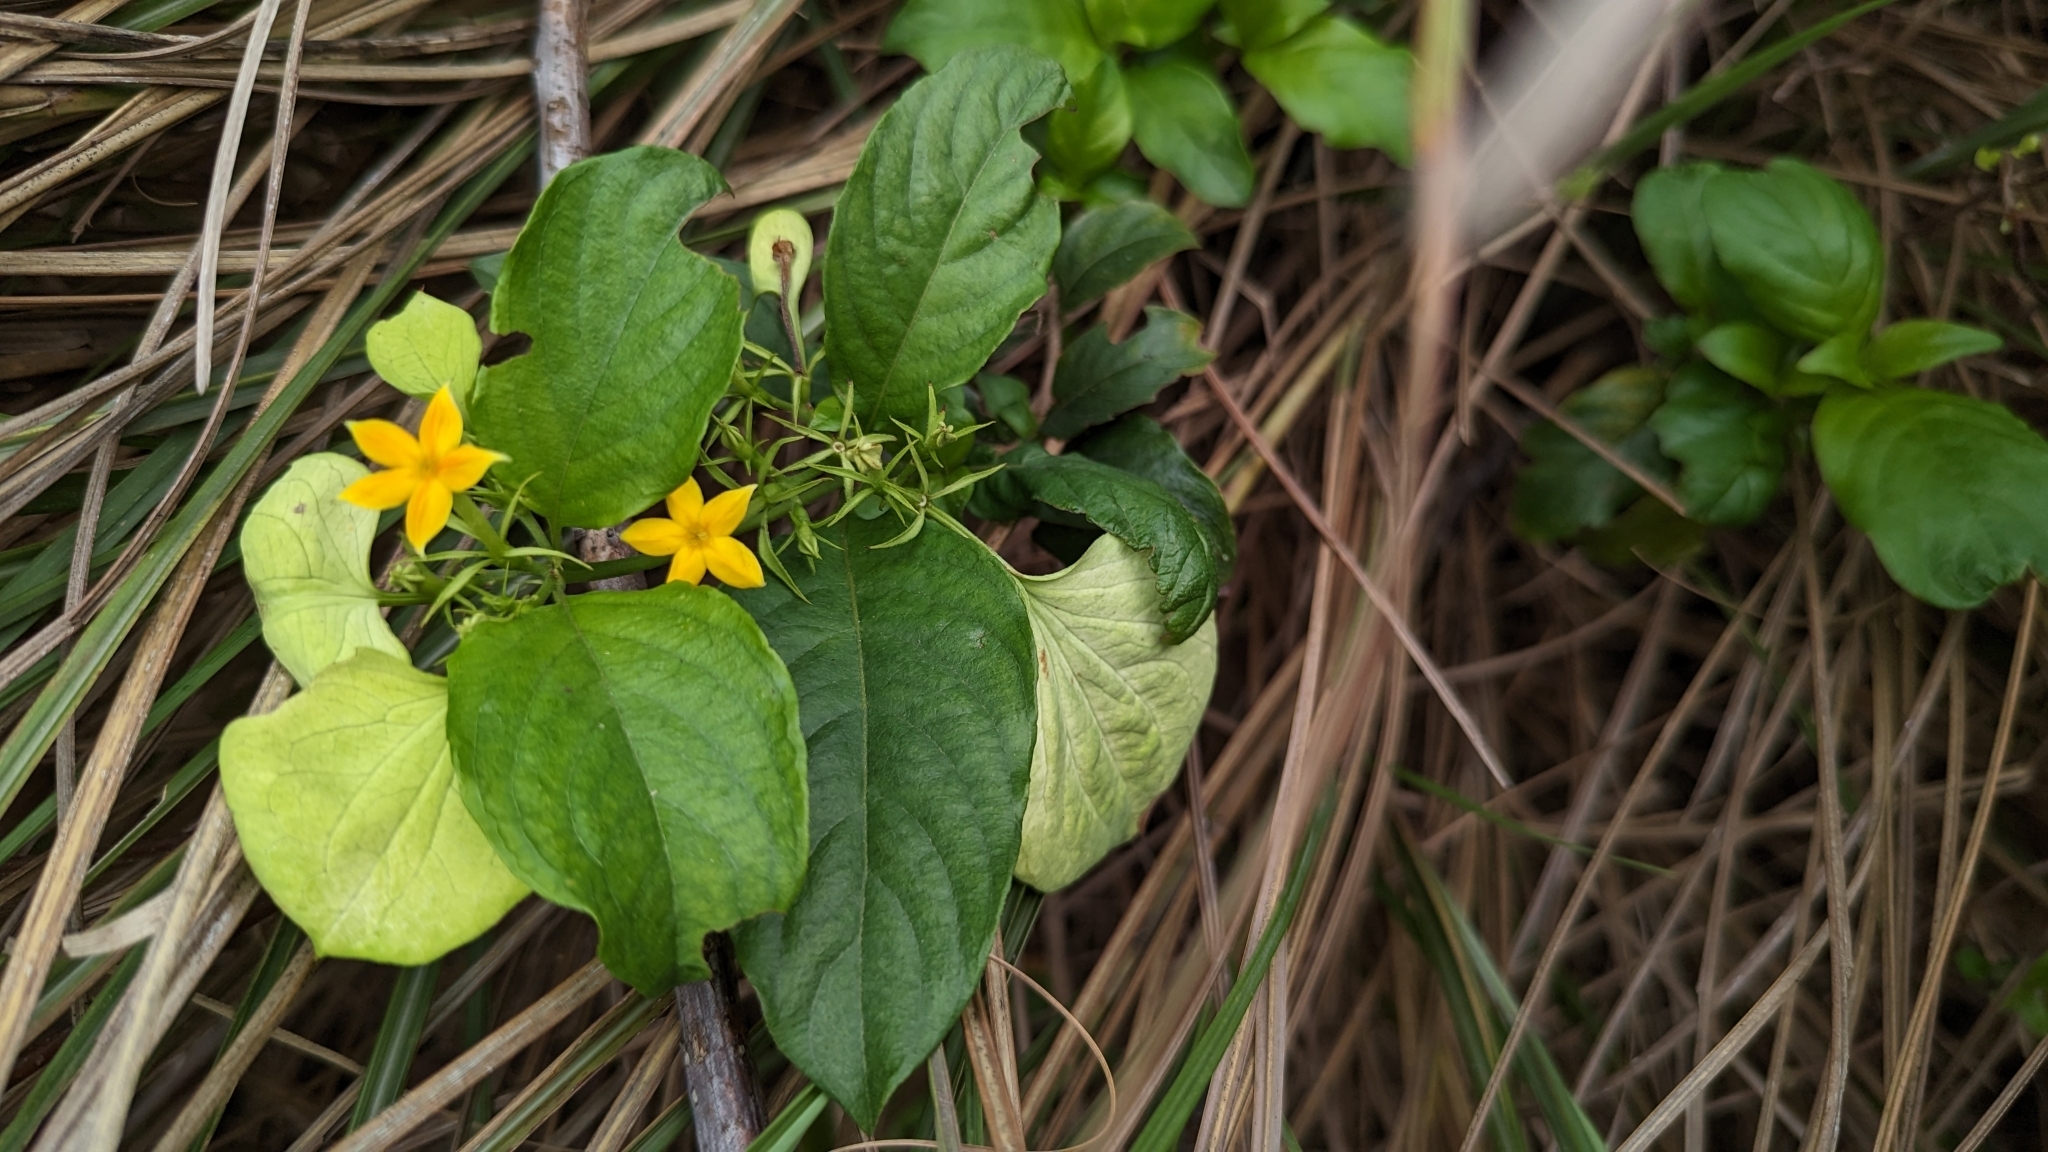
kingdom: Plantae
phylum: Tracheophyta
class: Magnoliopsida
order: Gentianales
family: Rubiaceae
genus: Mussaenda
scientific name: Mussaenda formosana
